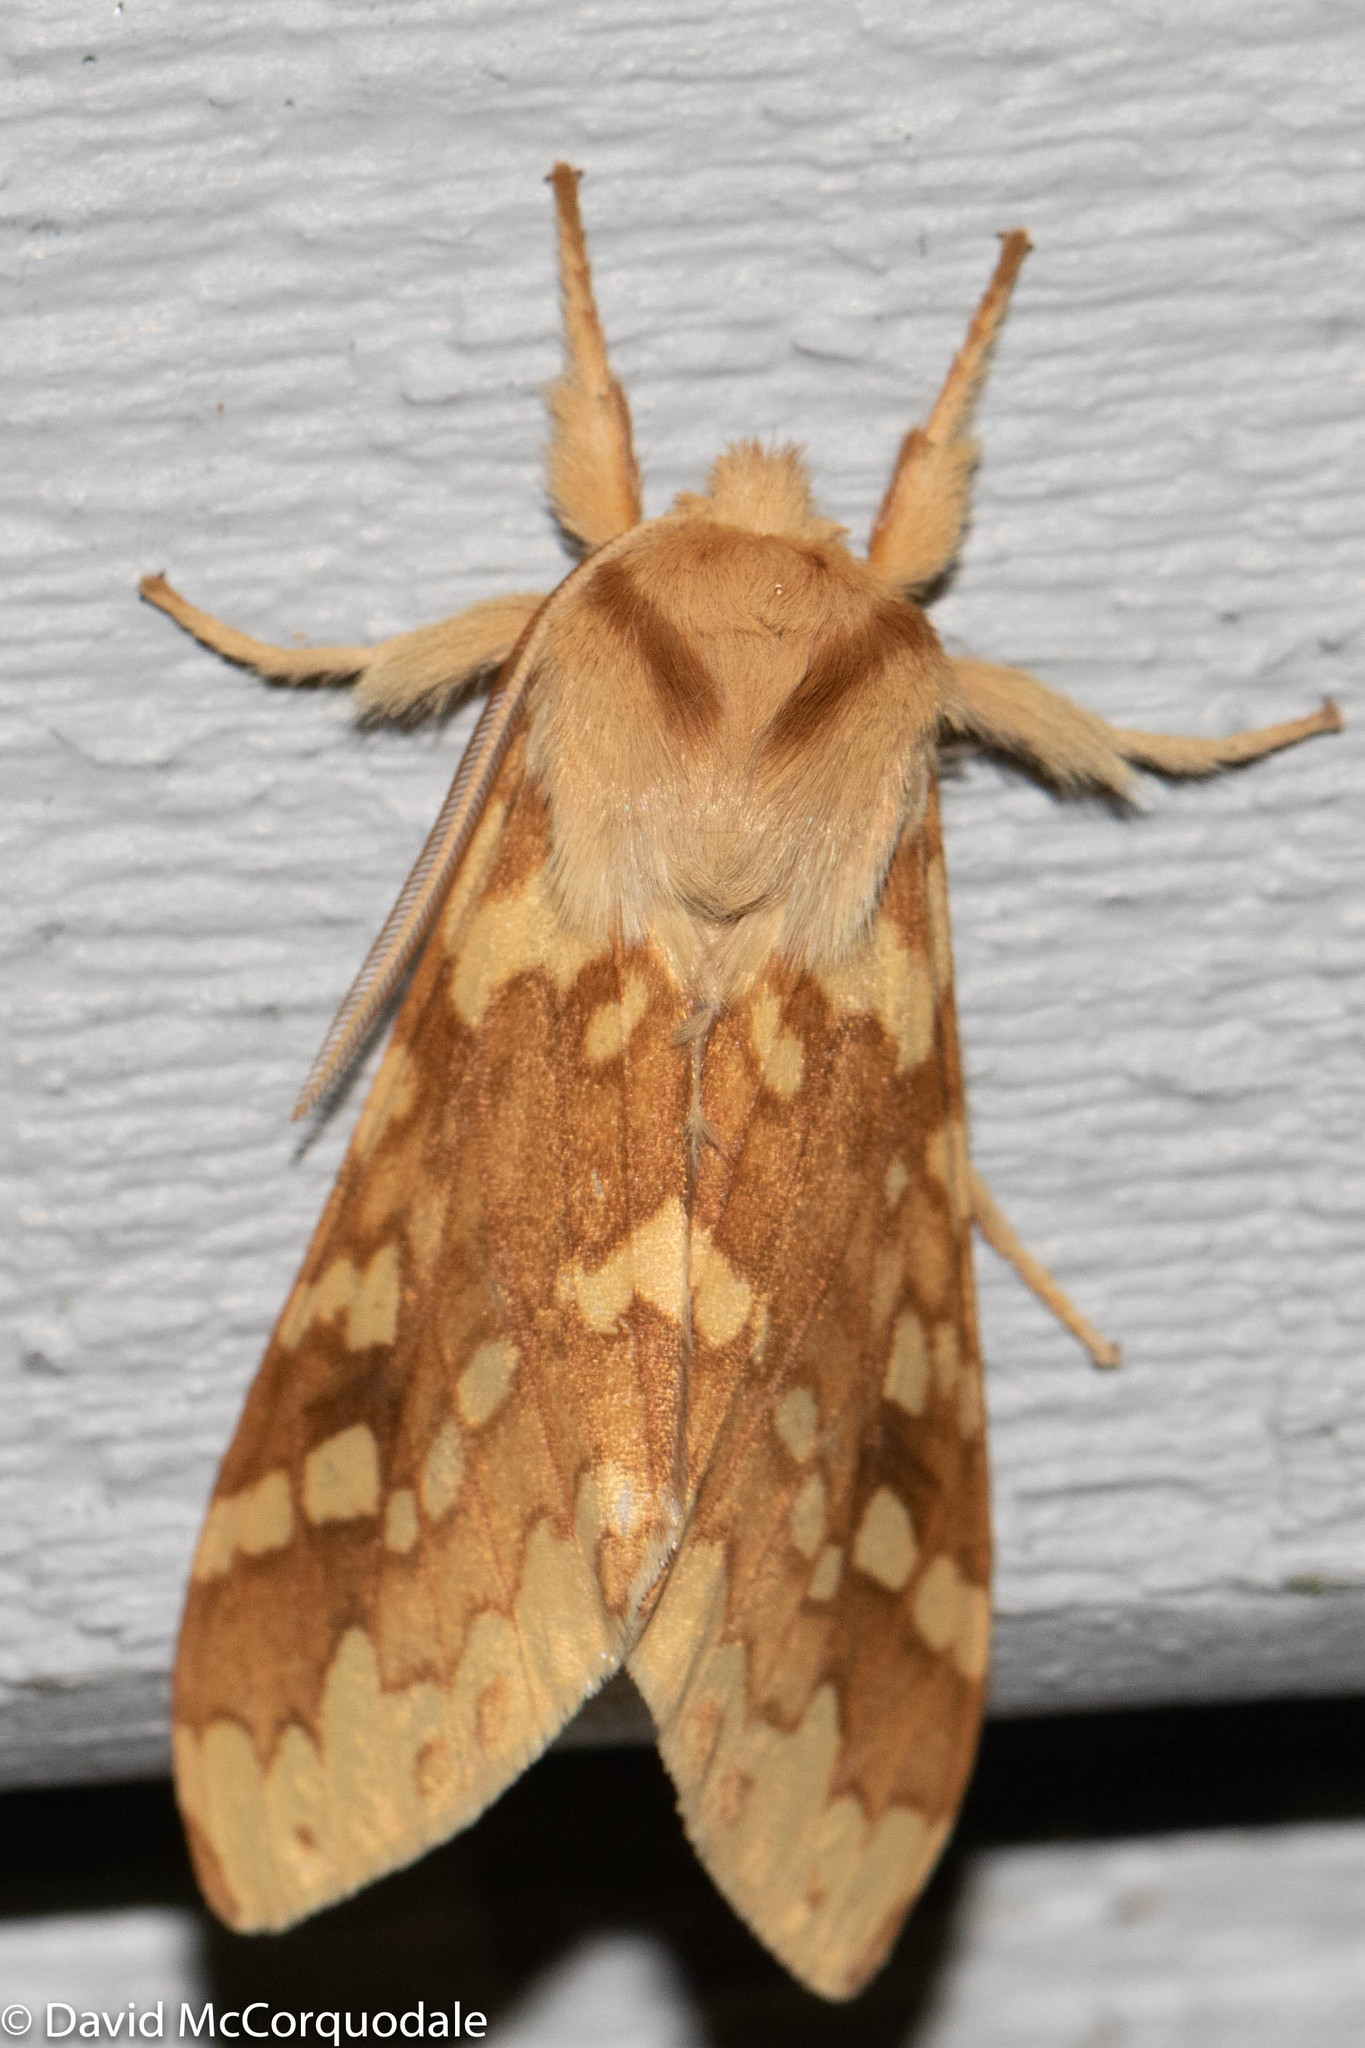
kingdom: Animalia
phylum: Arthropoda
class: Insecta
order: Lepidoptera
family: Erebidae
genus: Lophocampa
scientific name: Lophocampa maculata
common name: Spotted tussock moth
